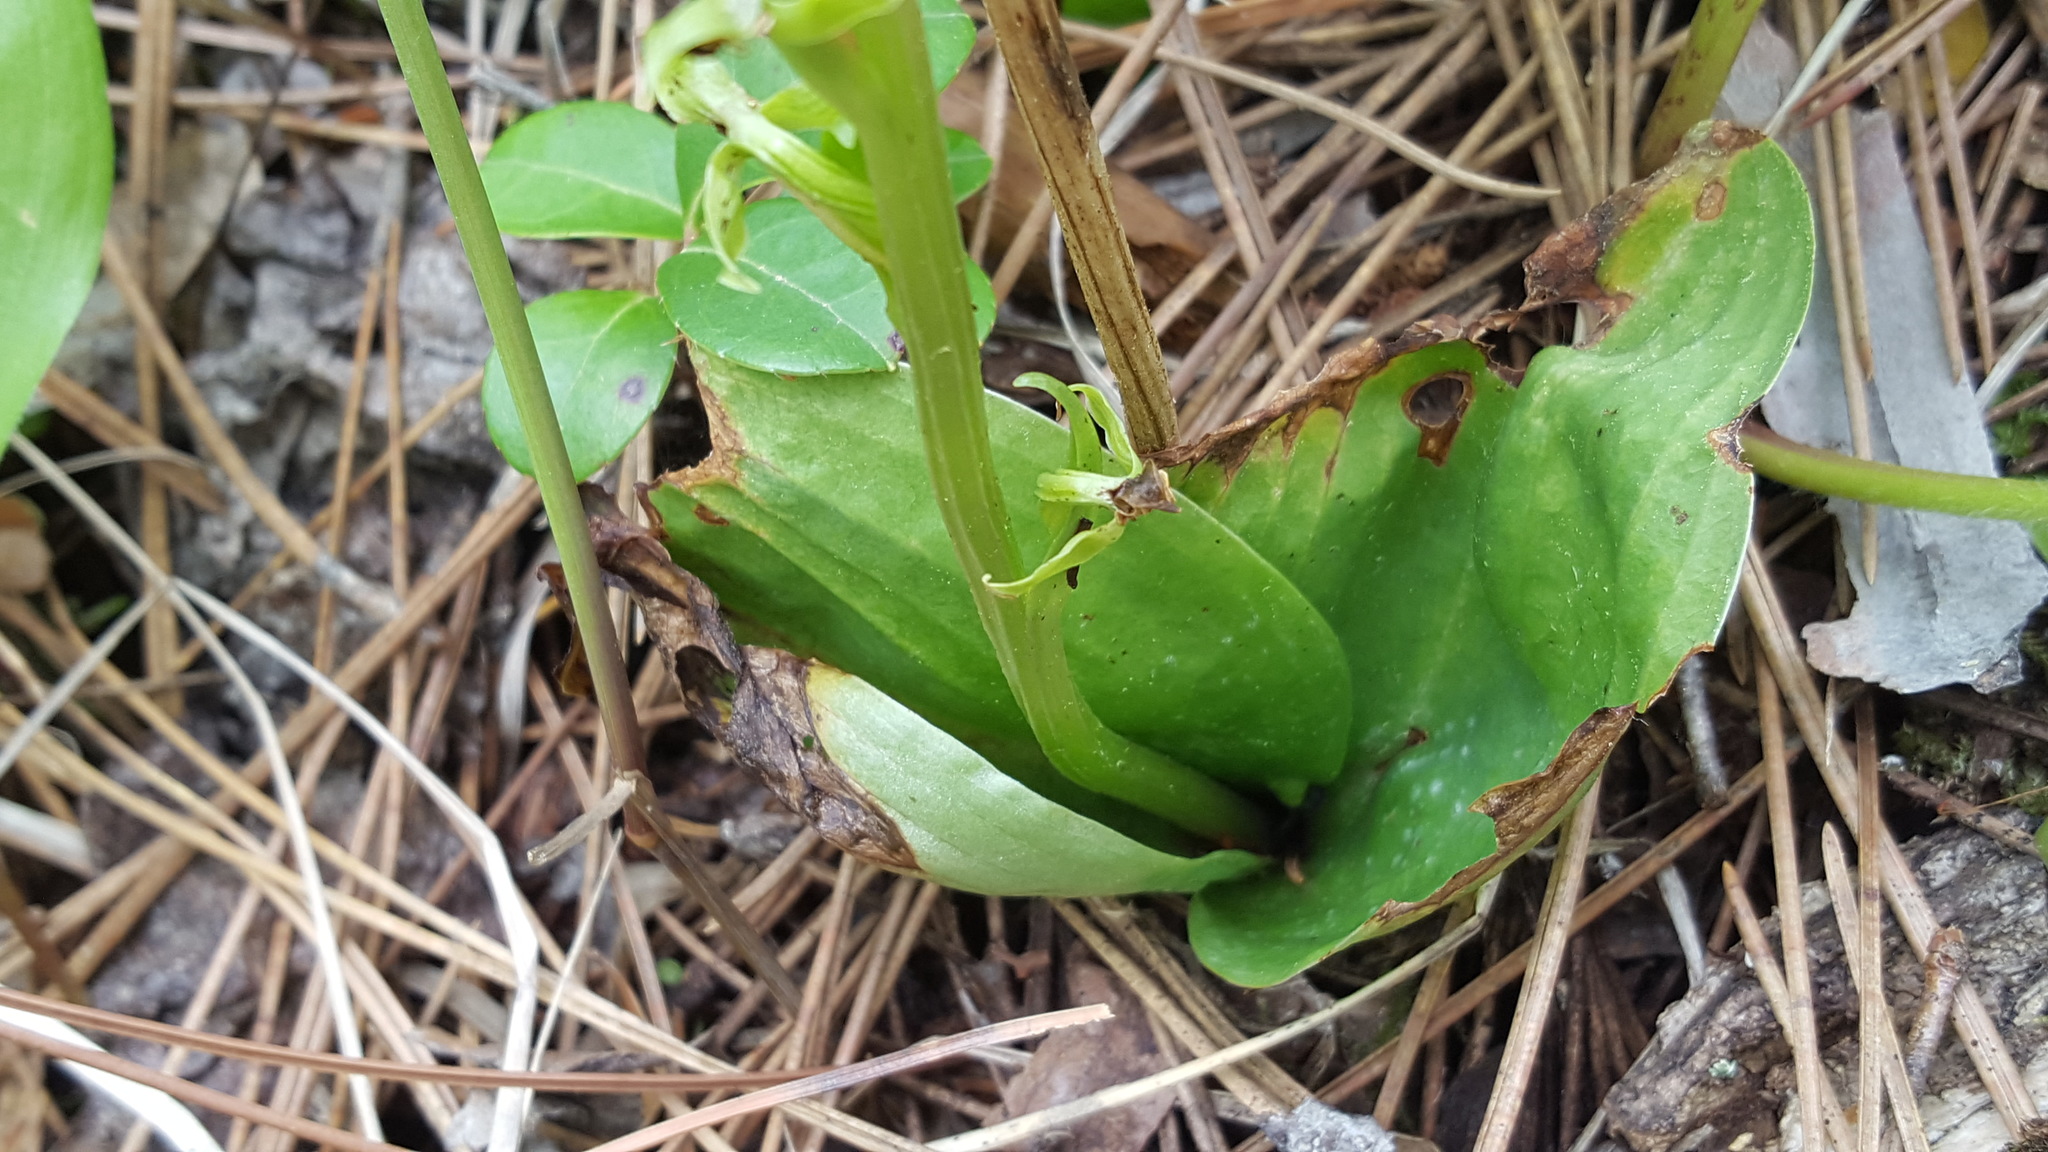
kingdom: Plantae
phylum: Tracheophyta
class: Liliopsida
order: Asparagales
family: Orchidaceae
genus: Platanthera
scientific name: Platanthera hookeri
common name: Hooker's orchid
